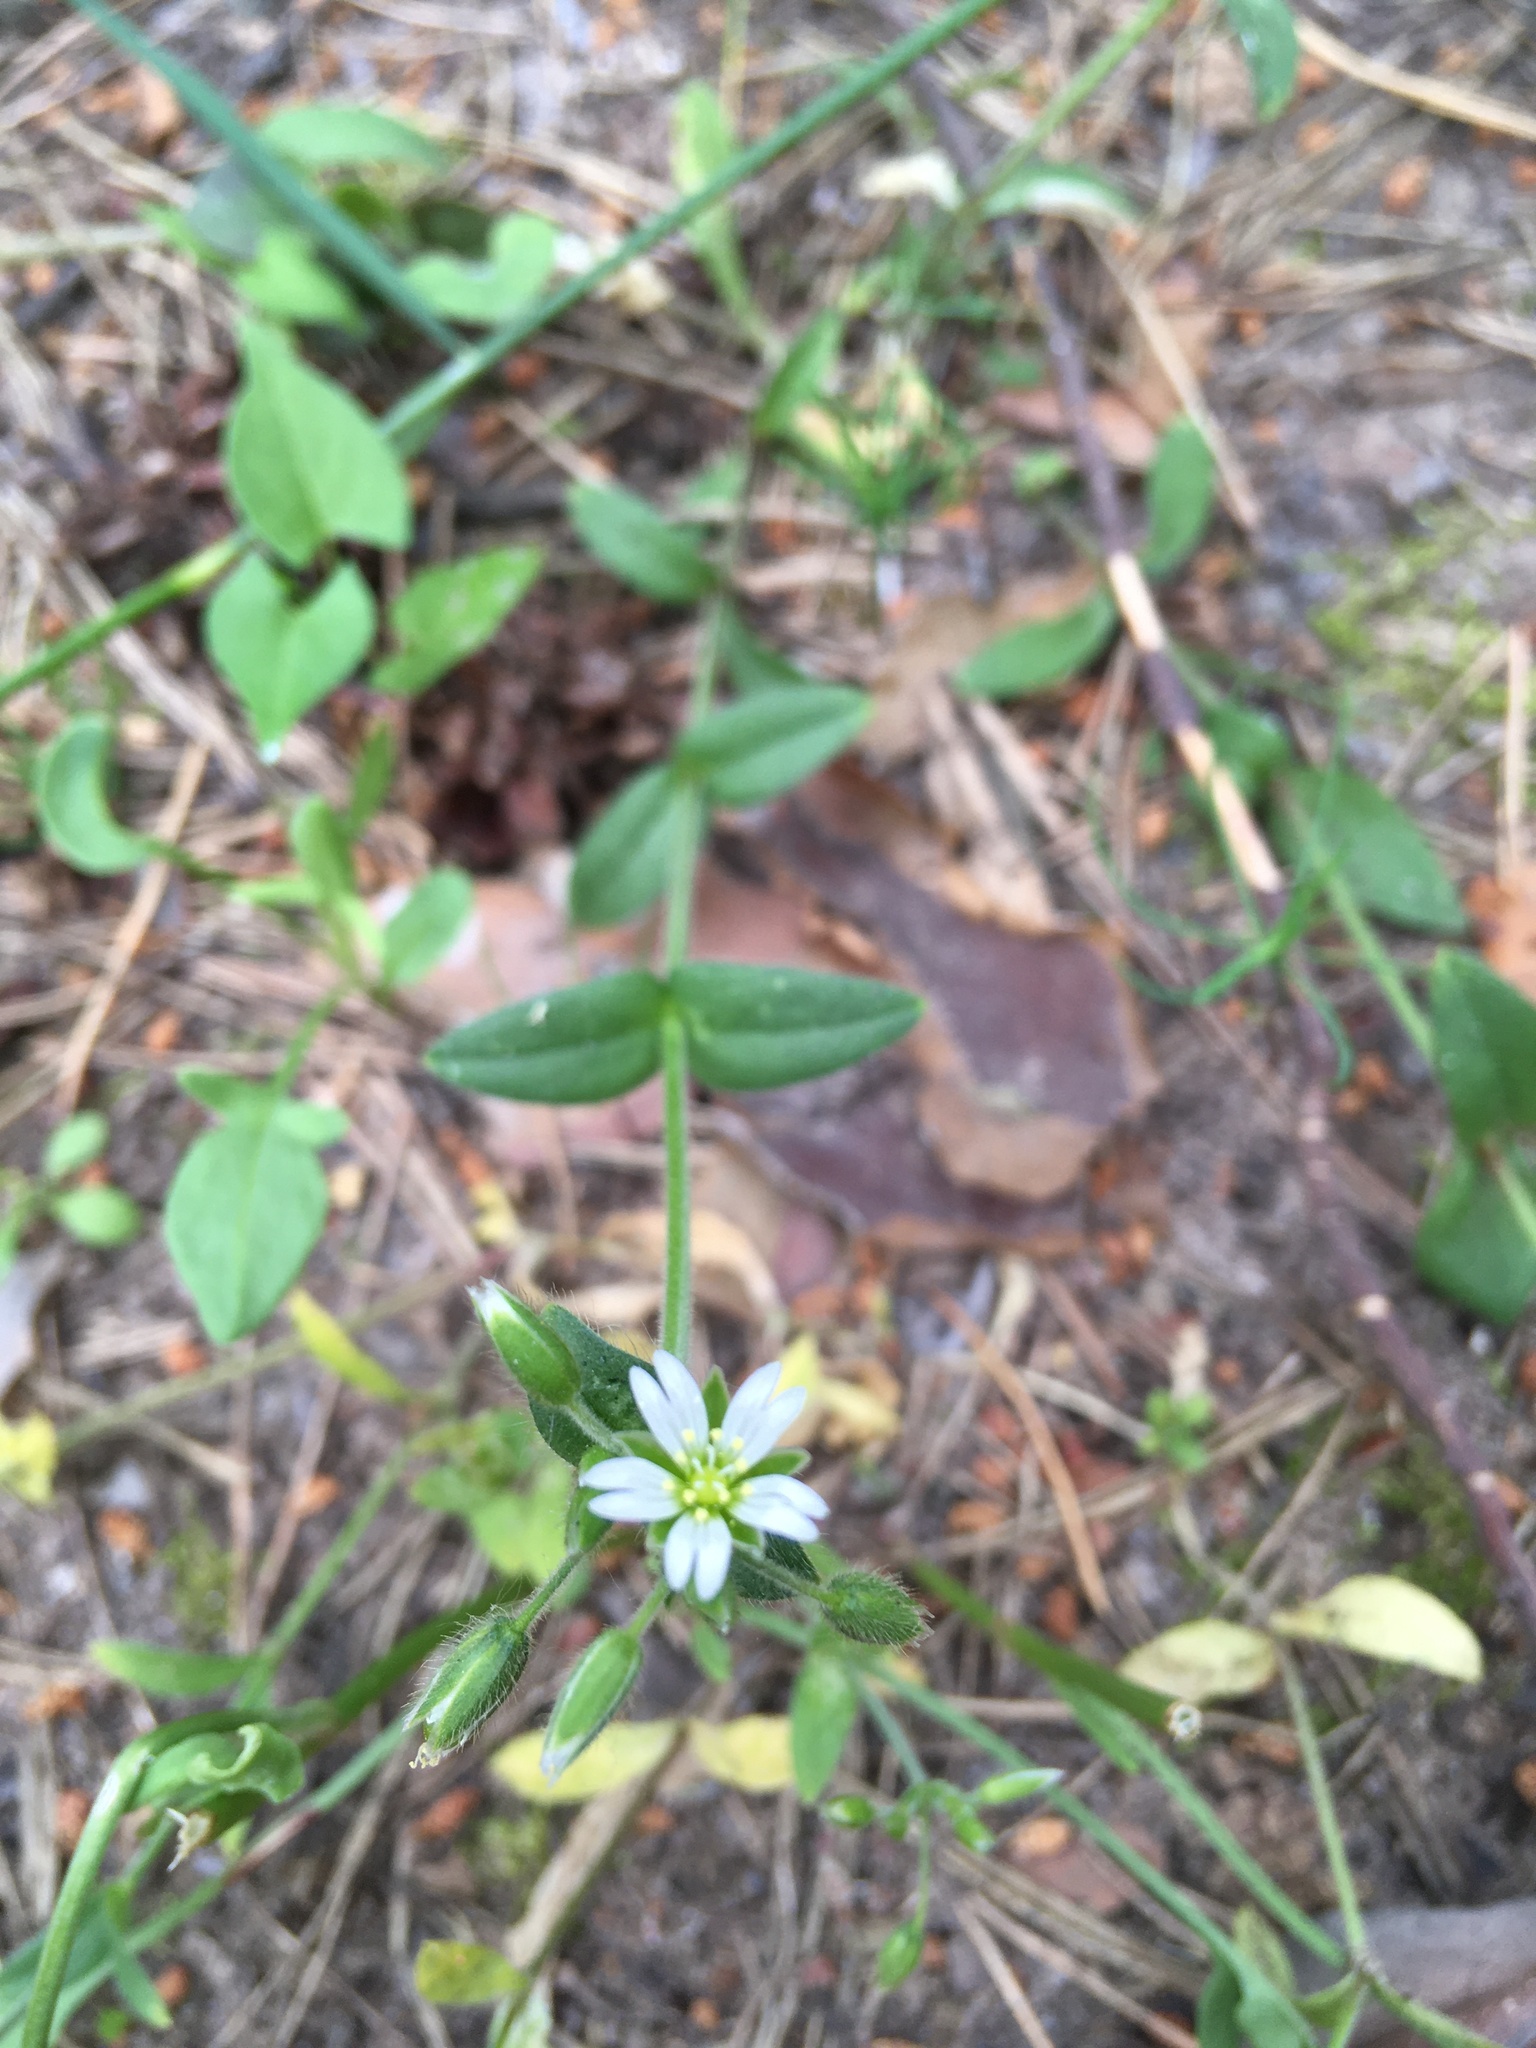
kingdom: Plantae
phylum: Tracheophyta
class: Magnoliopsida
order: Caryophyllales
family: Caryophyllaceae
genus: Cerastium
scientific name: Cerastium holosteoides
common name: Big chickweed
